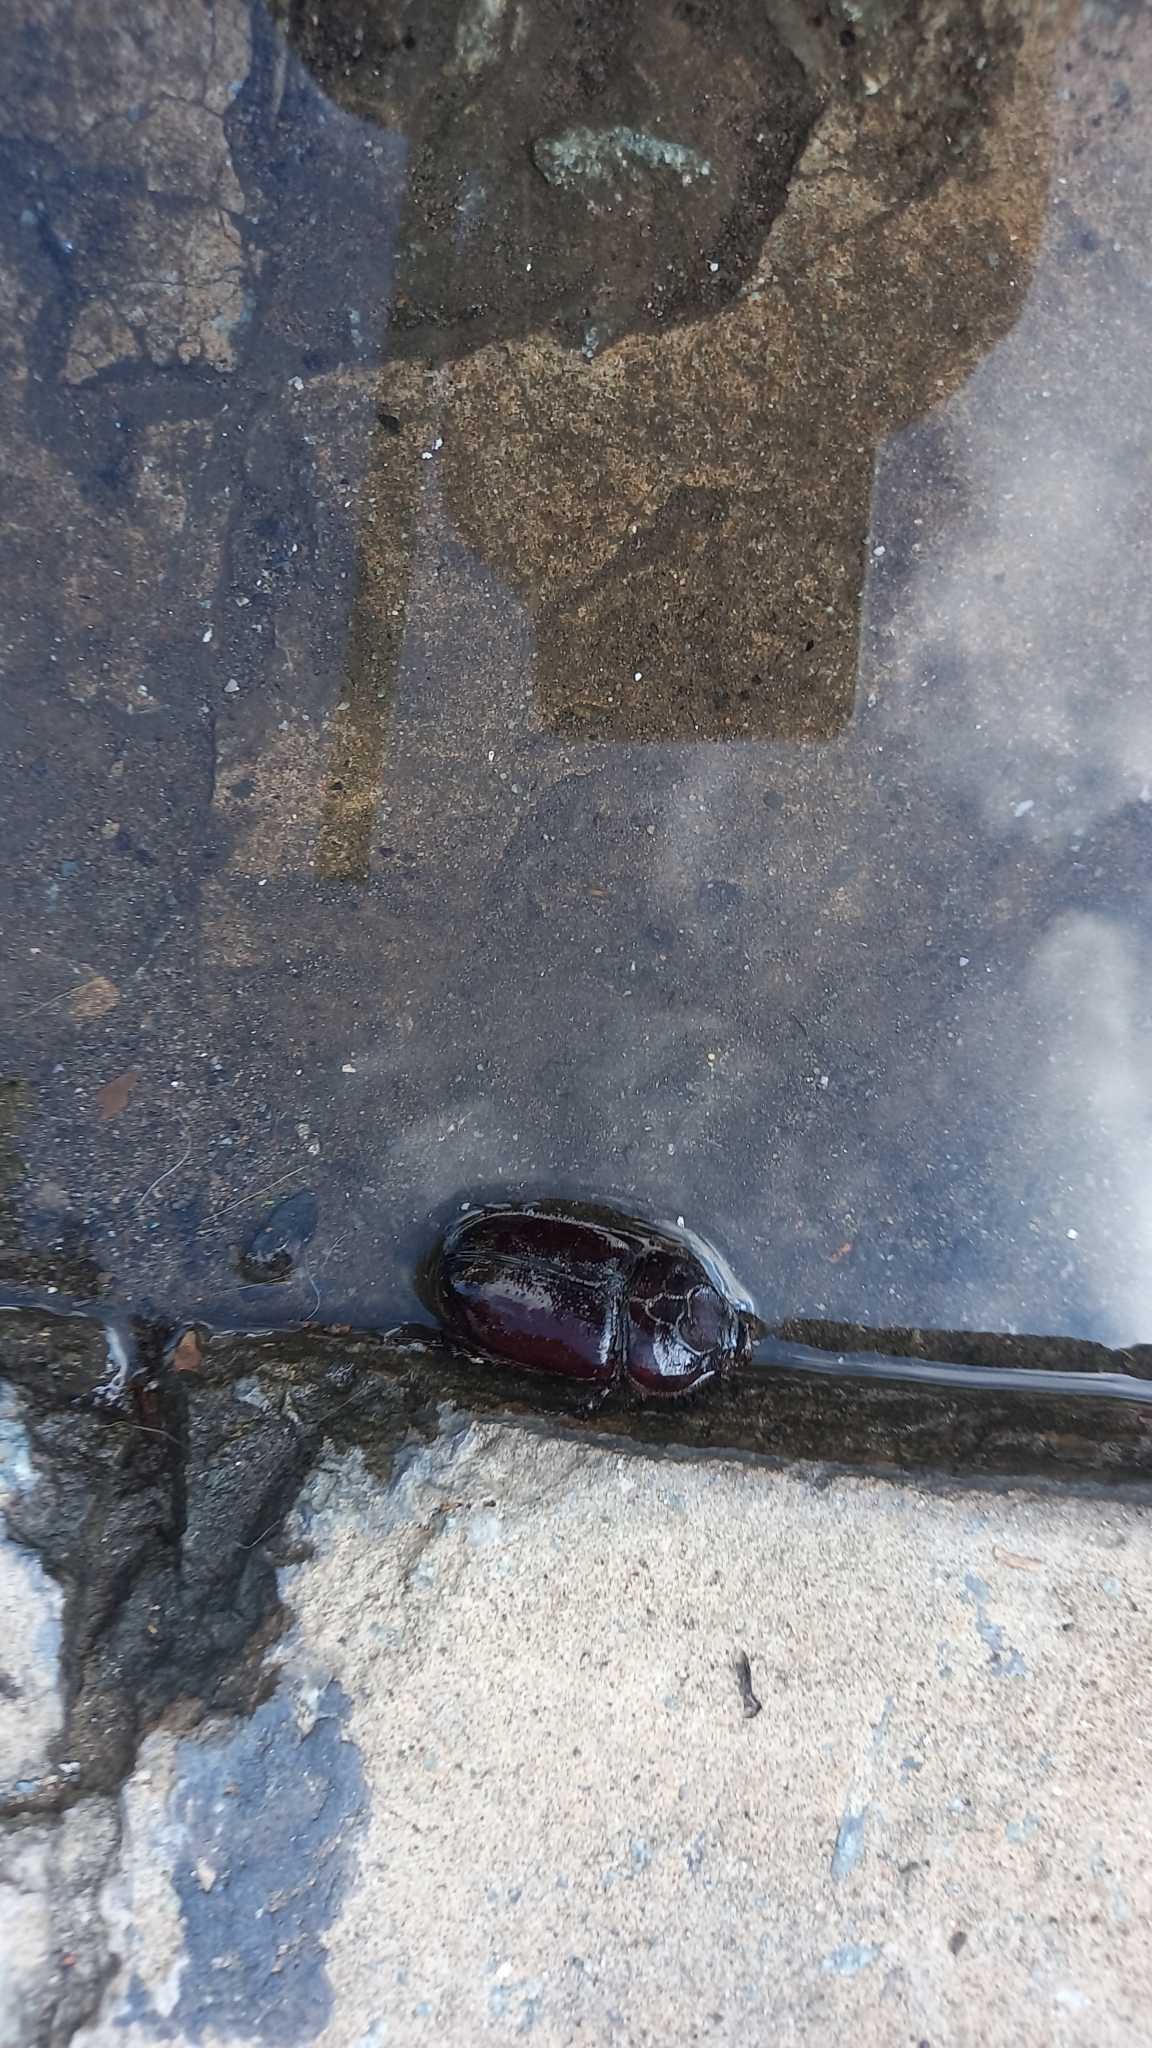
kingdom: Animalia
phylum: Arthropoda
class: Insecta
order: Coleoptera
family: Scarabaeidae
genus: Oryctes
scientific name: Oryctes rhinoceros
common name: Coconut rhinoceros beetle
